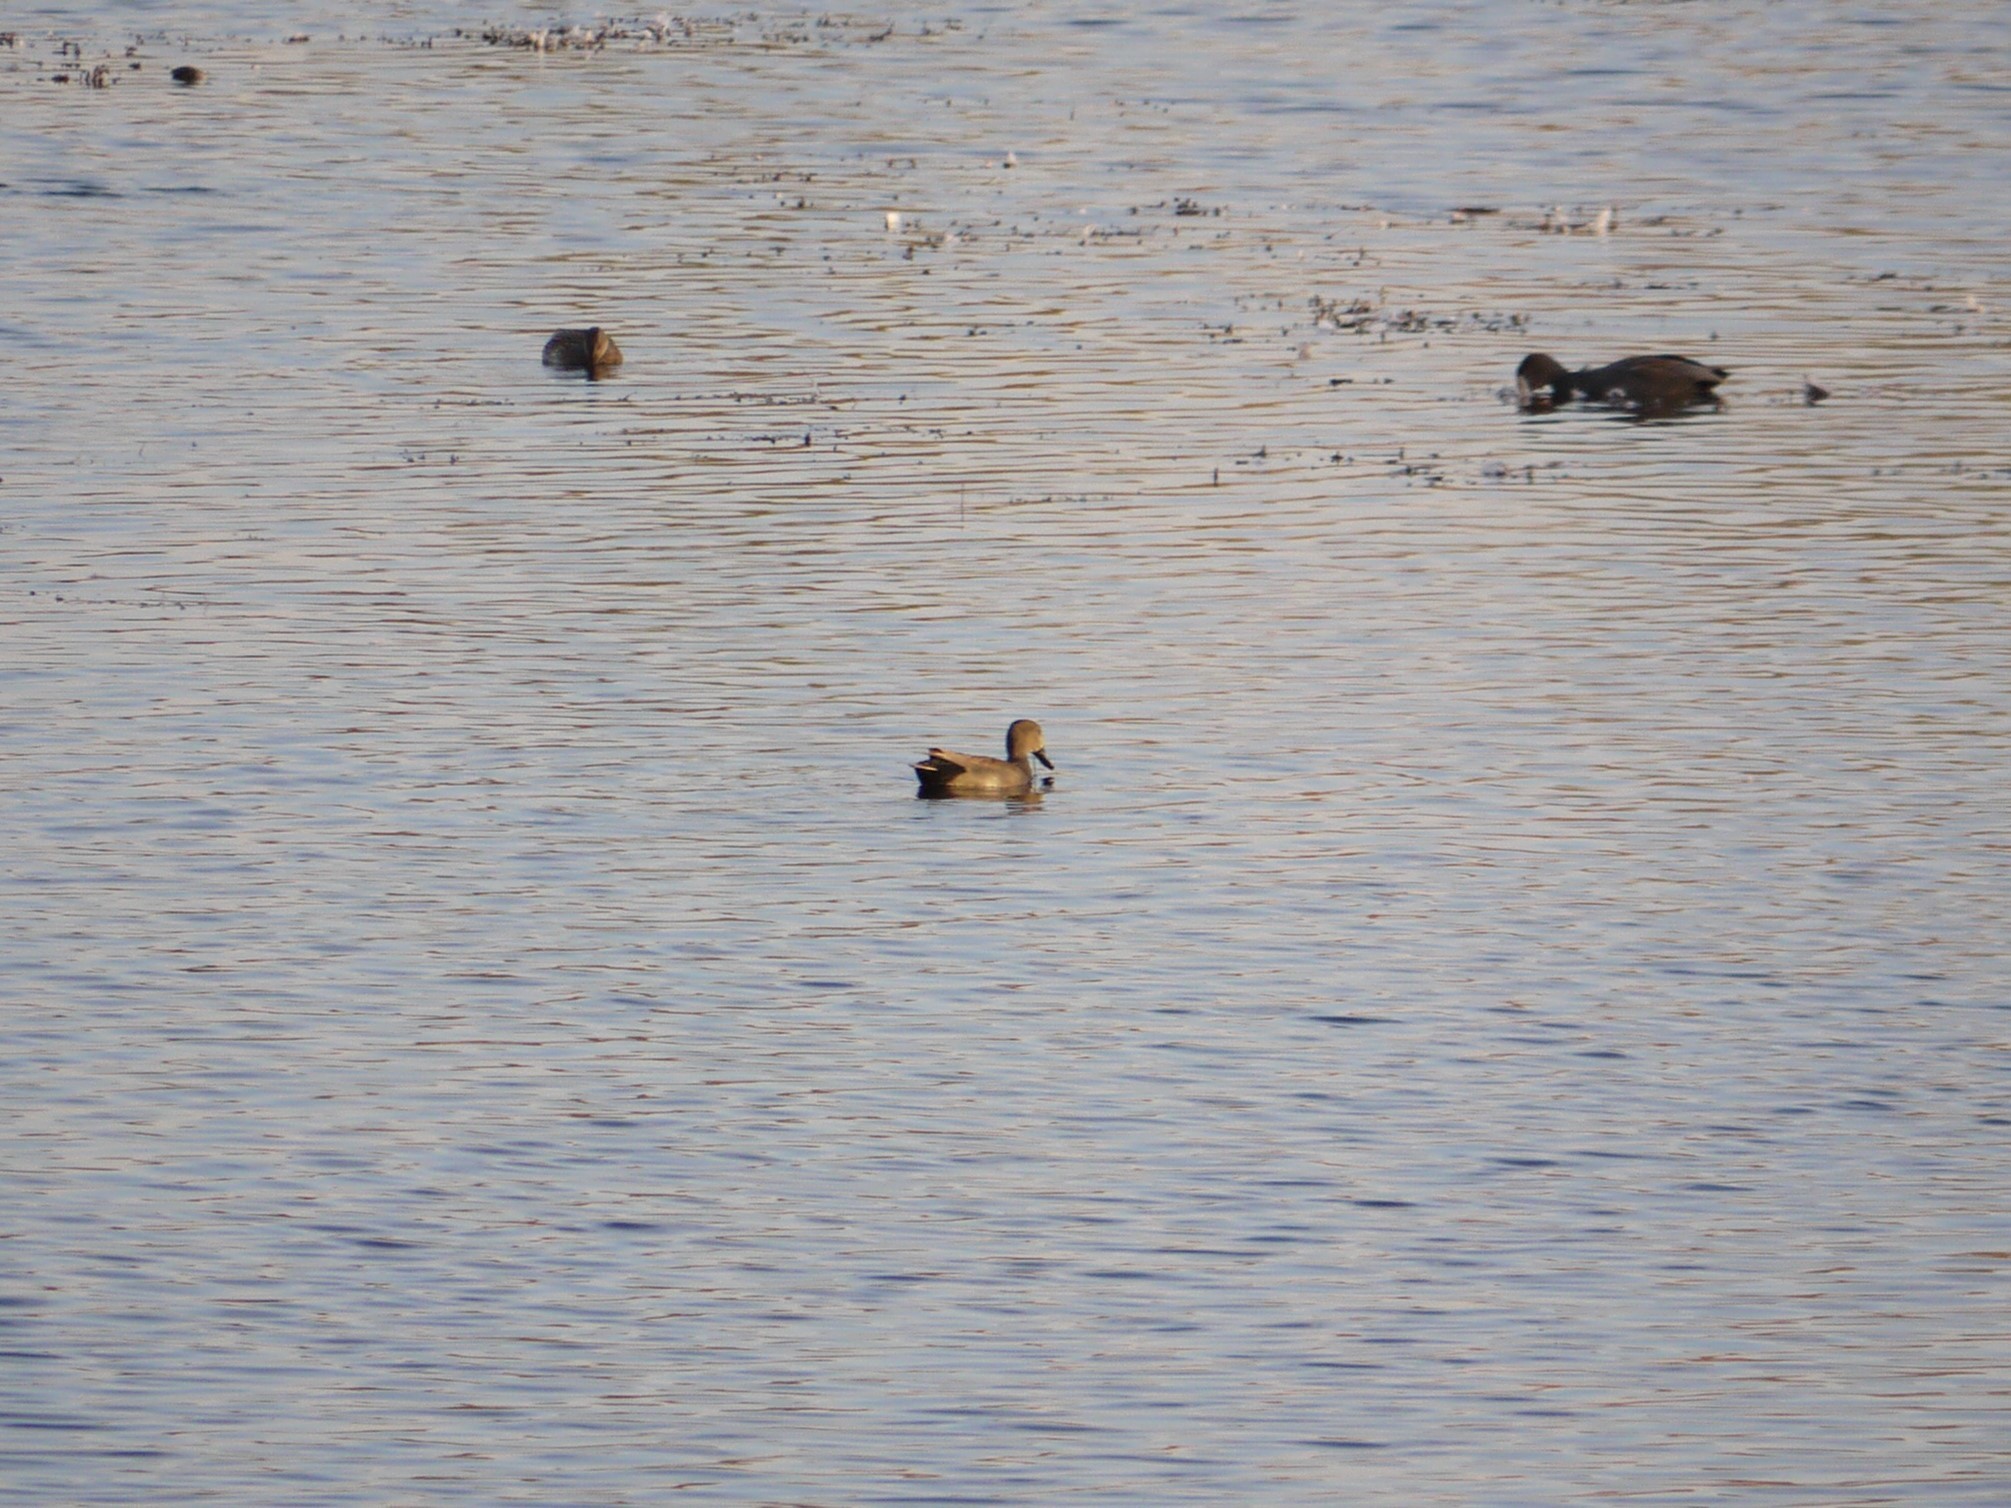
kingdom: Animalia
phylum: Chordata
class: Aves
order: Anseriformes
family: Anatidae
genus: Mareca
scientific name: Mareca strepera
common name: Gadwall
